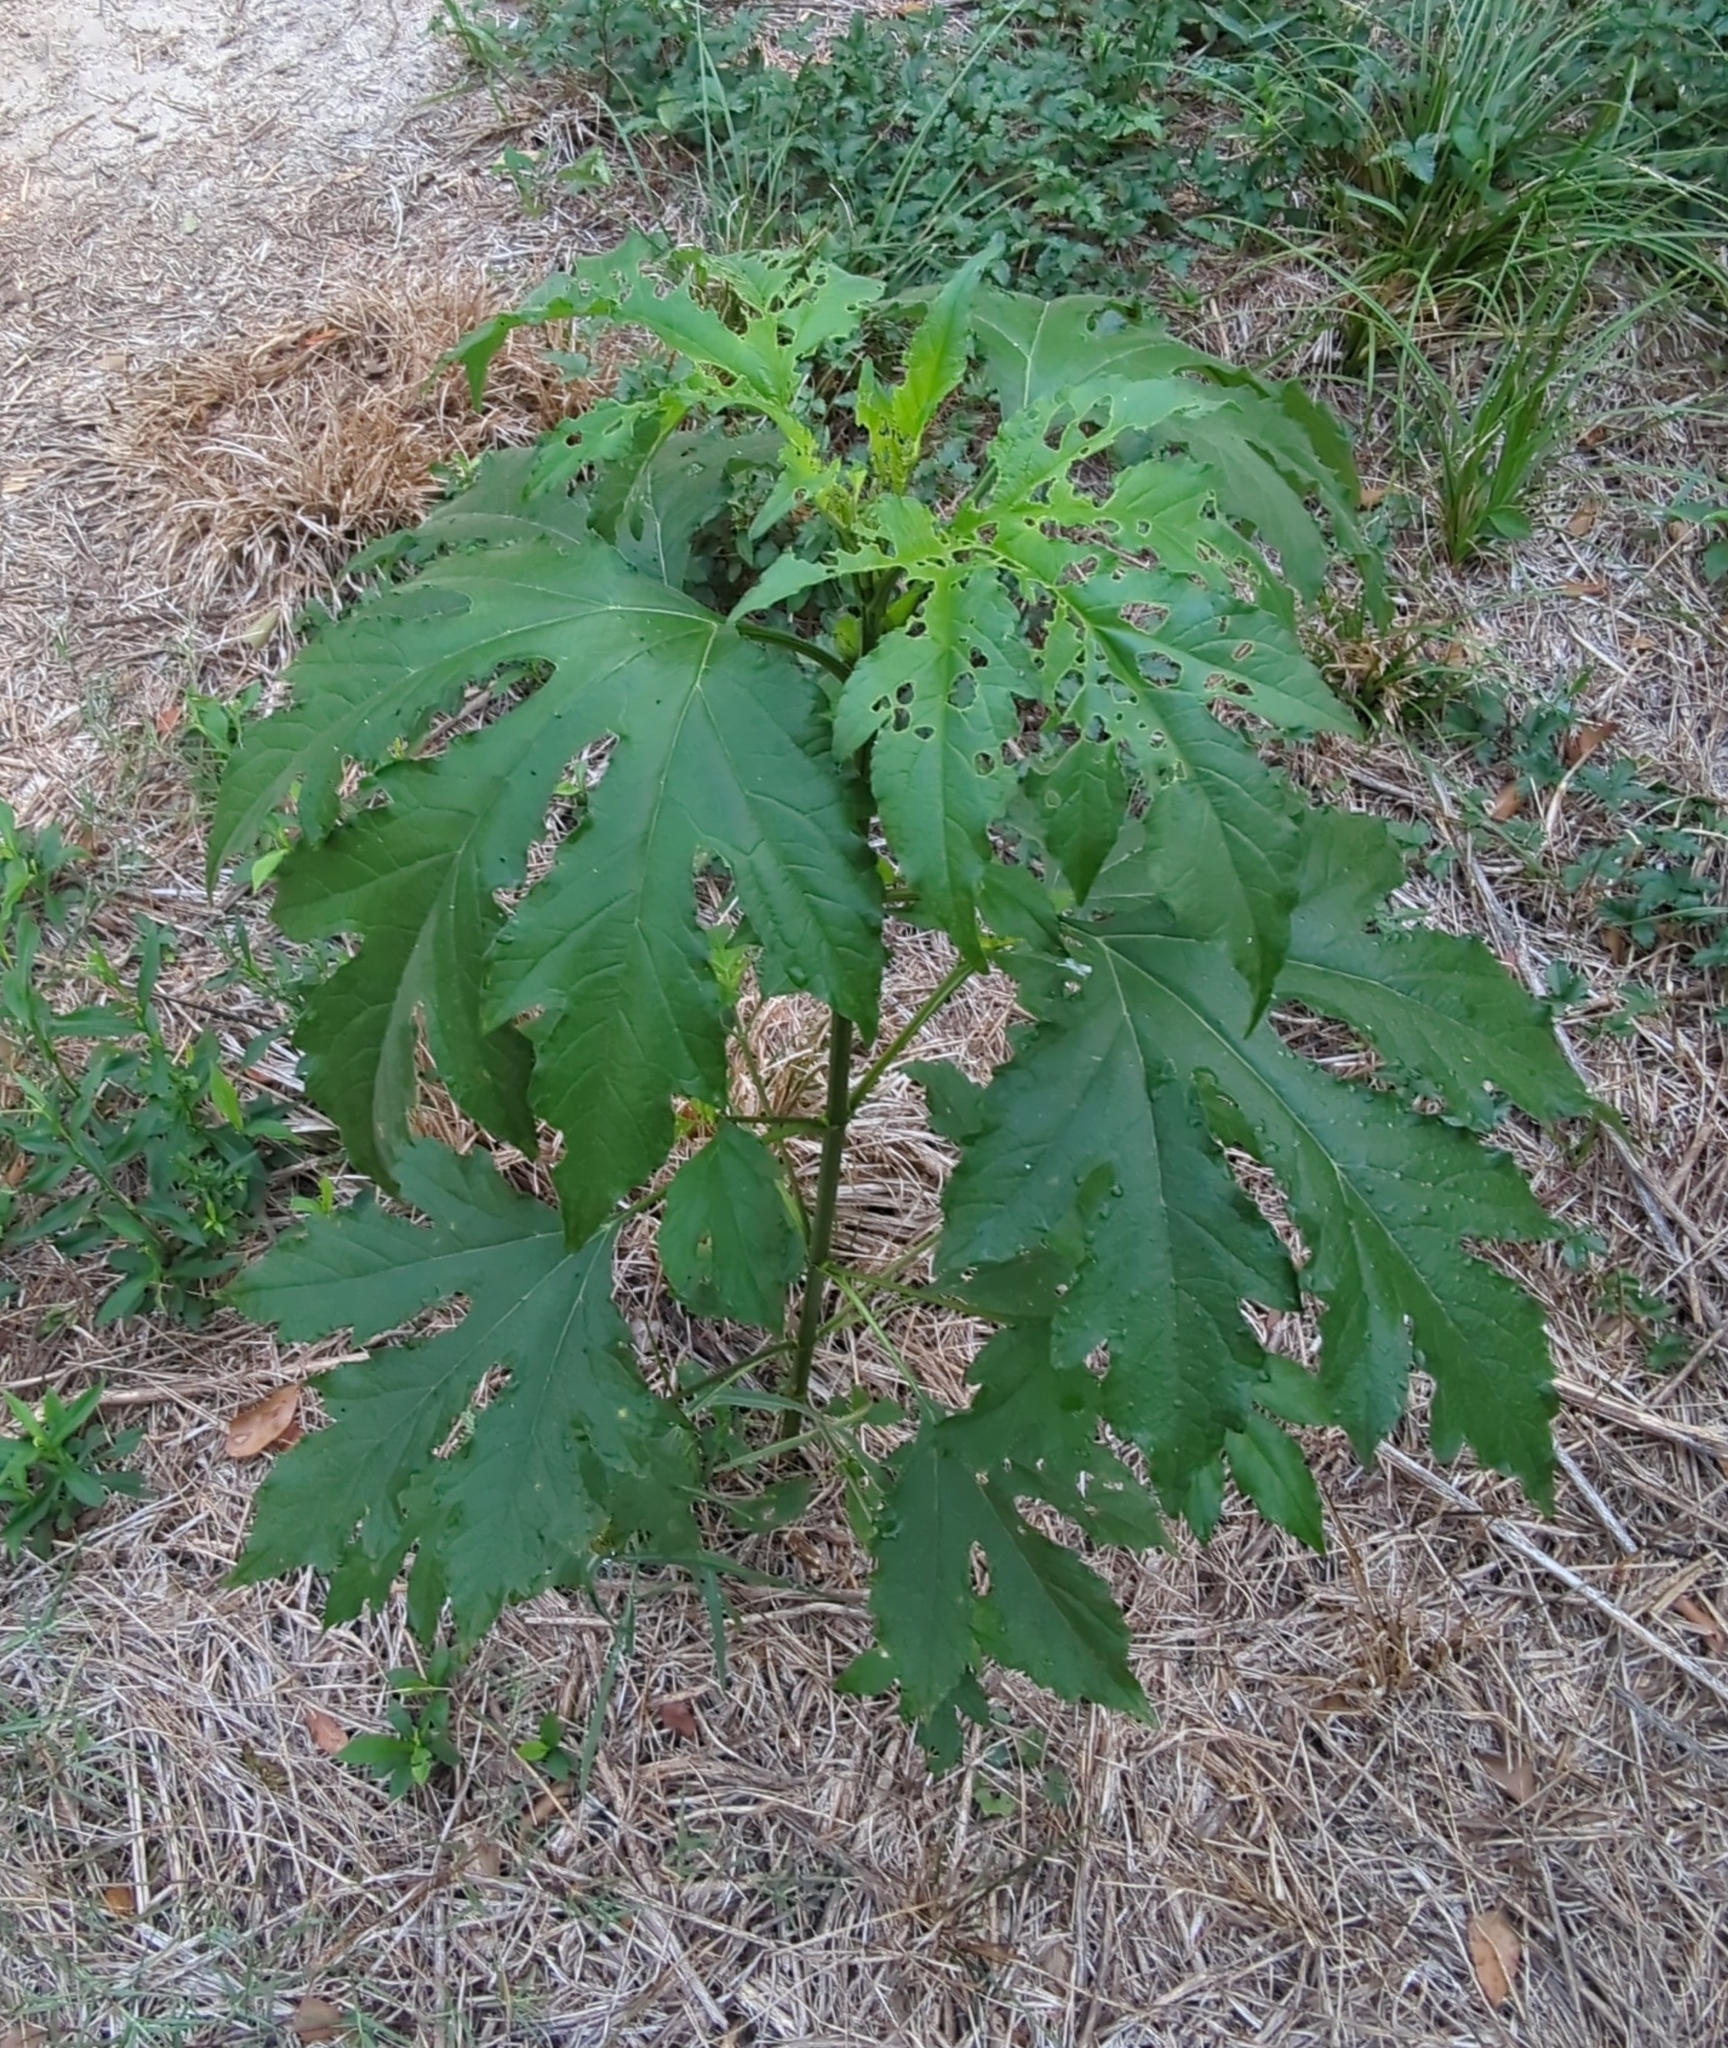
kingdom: Plantae
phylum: Tracheophyta
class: Magnoliopsida
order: Asterales
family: Asteraceae
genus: Ambrosia
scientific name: Ambrosia trifida
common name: Giant ragweed
